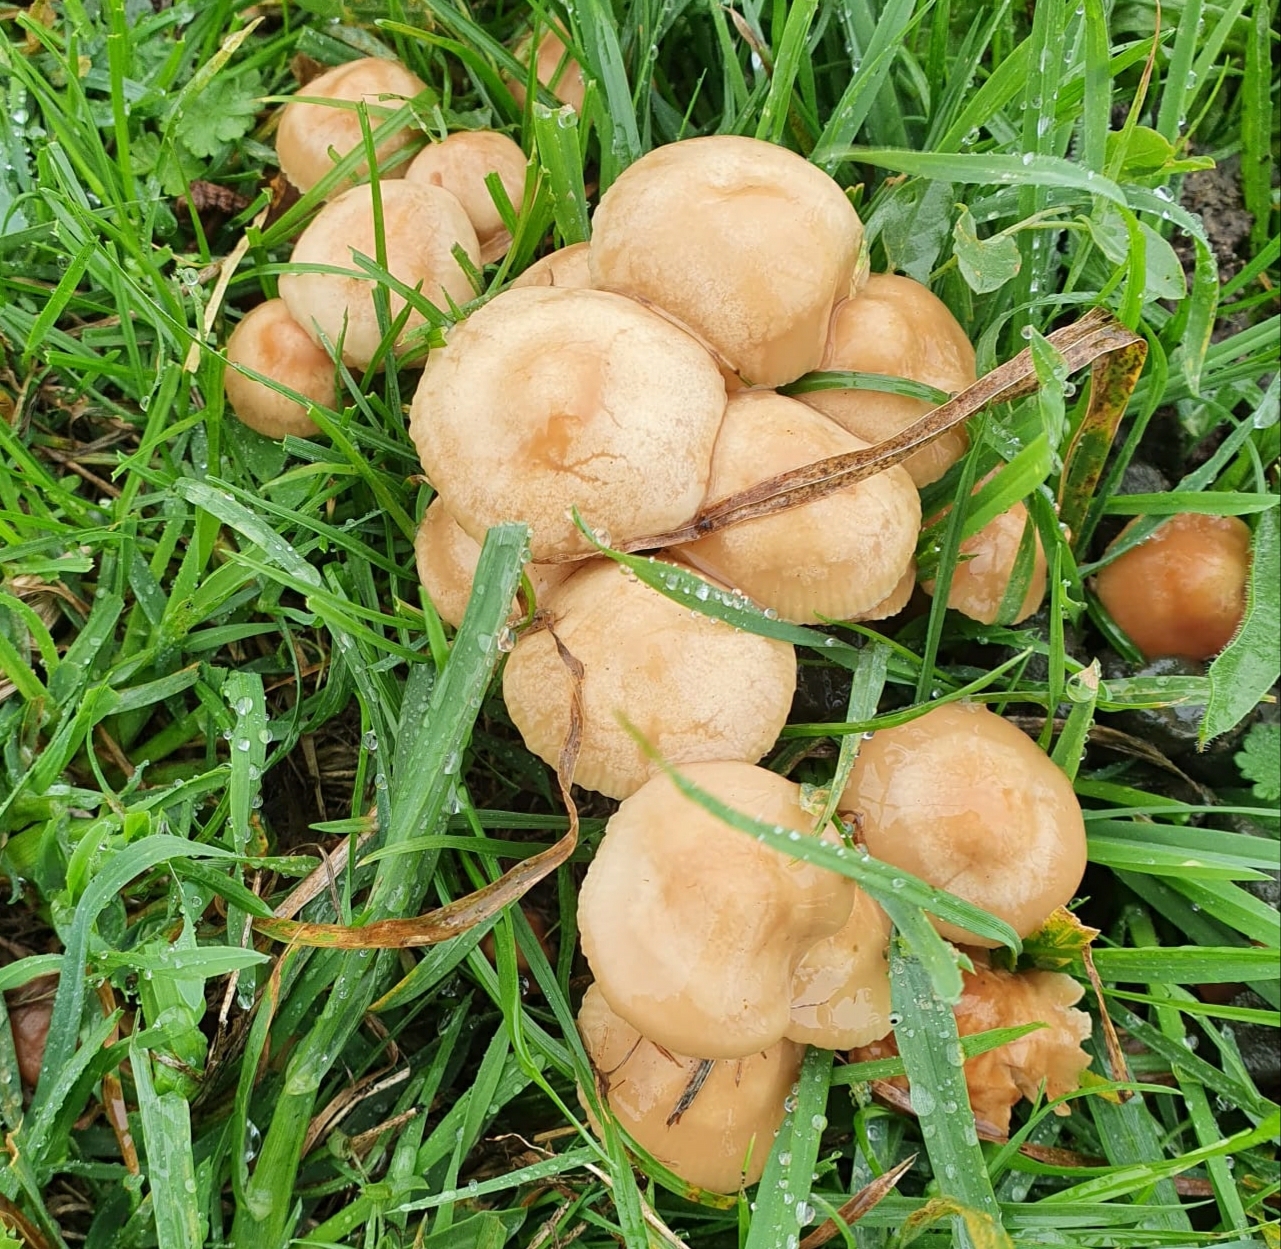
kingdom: Fungi
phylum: Basidiomycota
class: Agaricomycetes
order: Agaricales
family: Marasmiaceae
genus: Marasmius
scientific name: Marasmius oreades
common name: Fairy ring champignon
